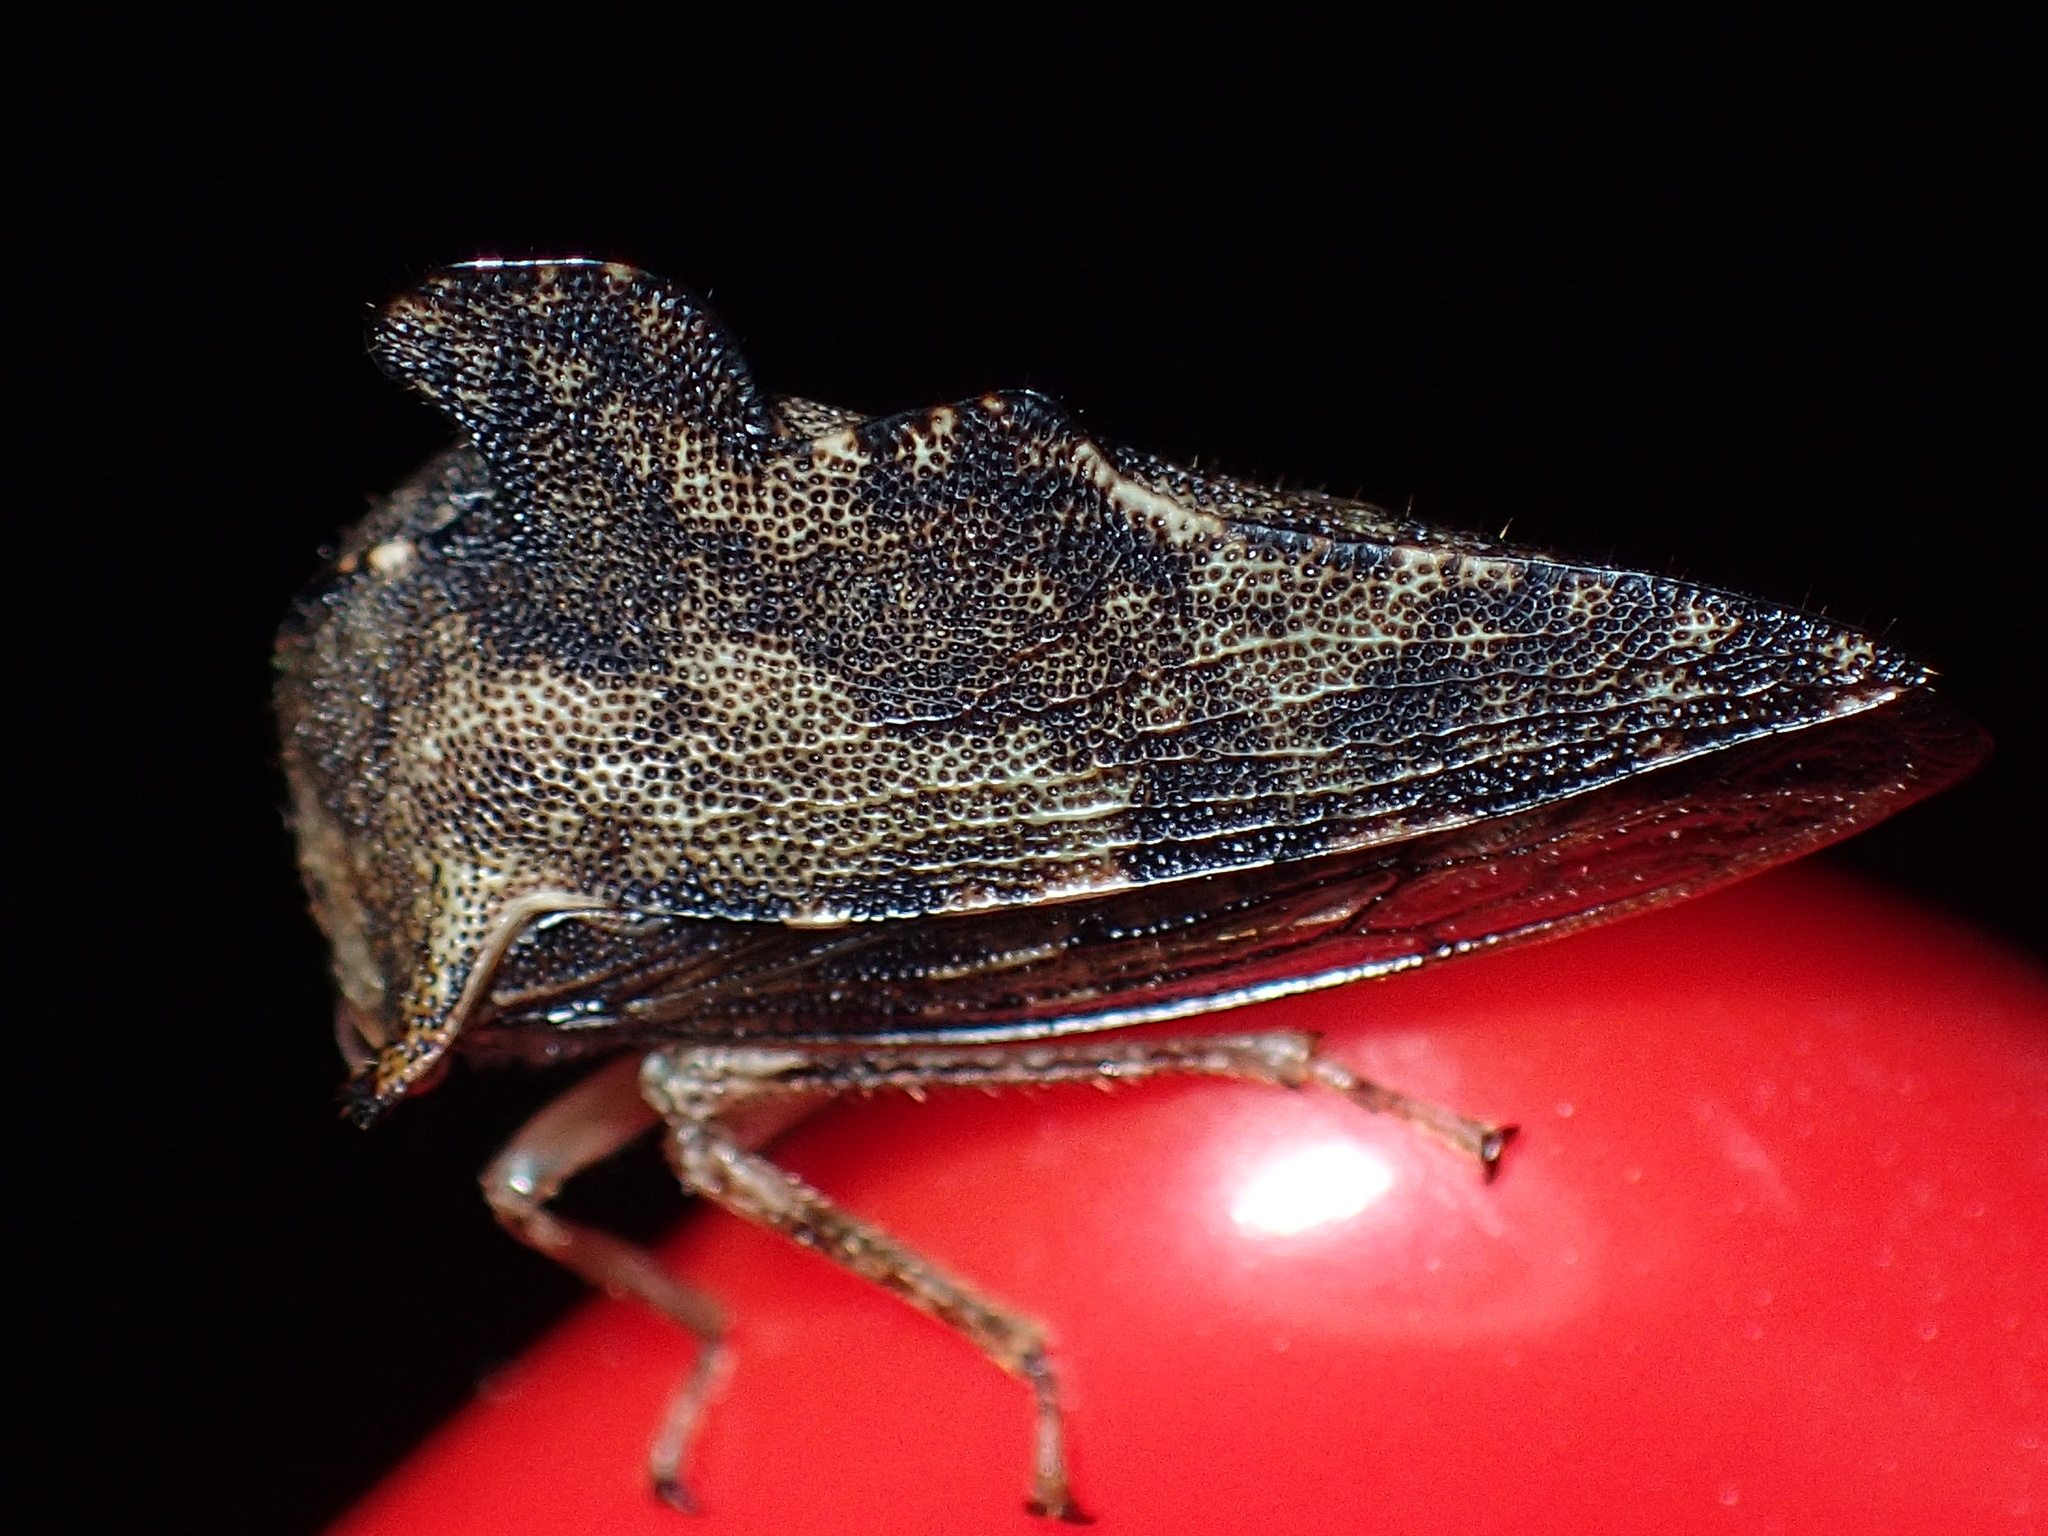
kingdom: Animalia
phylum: Arthropoda
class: Insecta
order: Hemiptera
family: Membracidae
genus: Heliria
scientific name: Heliria cristata
